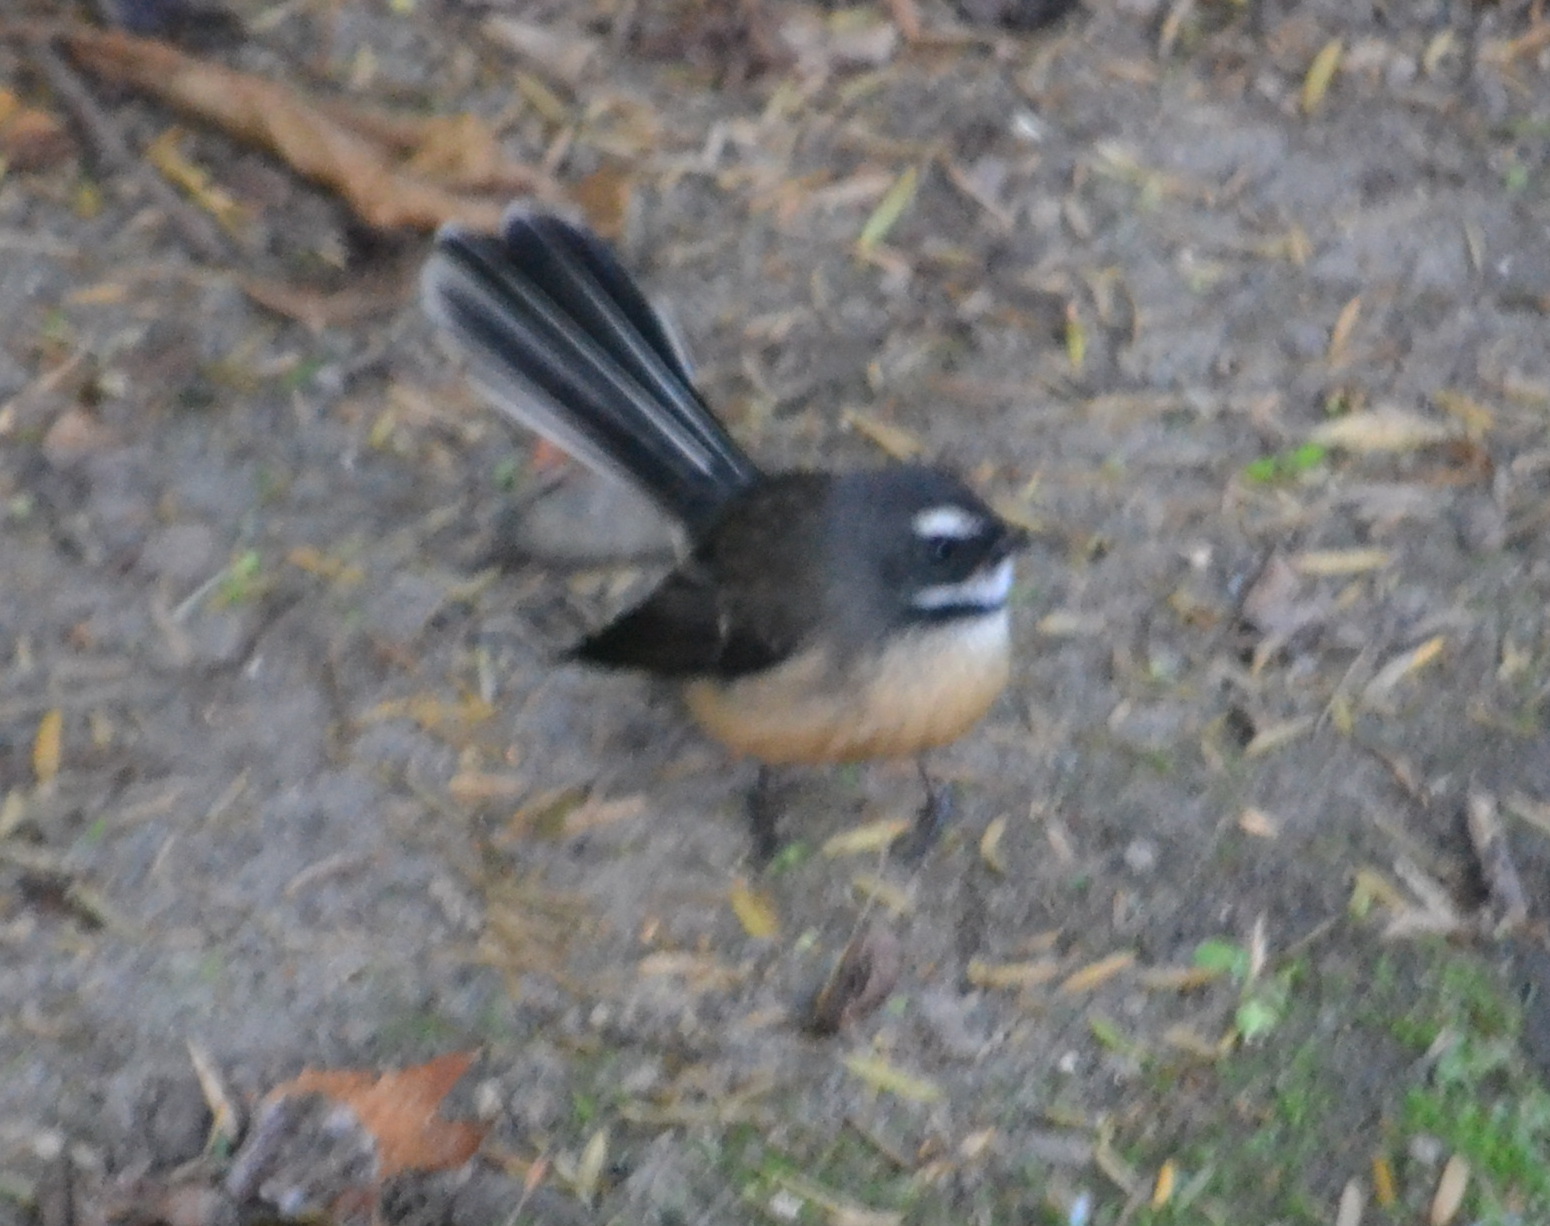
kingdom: Animalia
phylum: Chordata
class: Aves
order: Passeriformes
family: Rhipiduridae
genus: Rhipidura
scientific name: Rhipidura fuliginosa
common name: New zealand fantail
